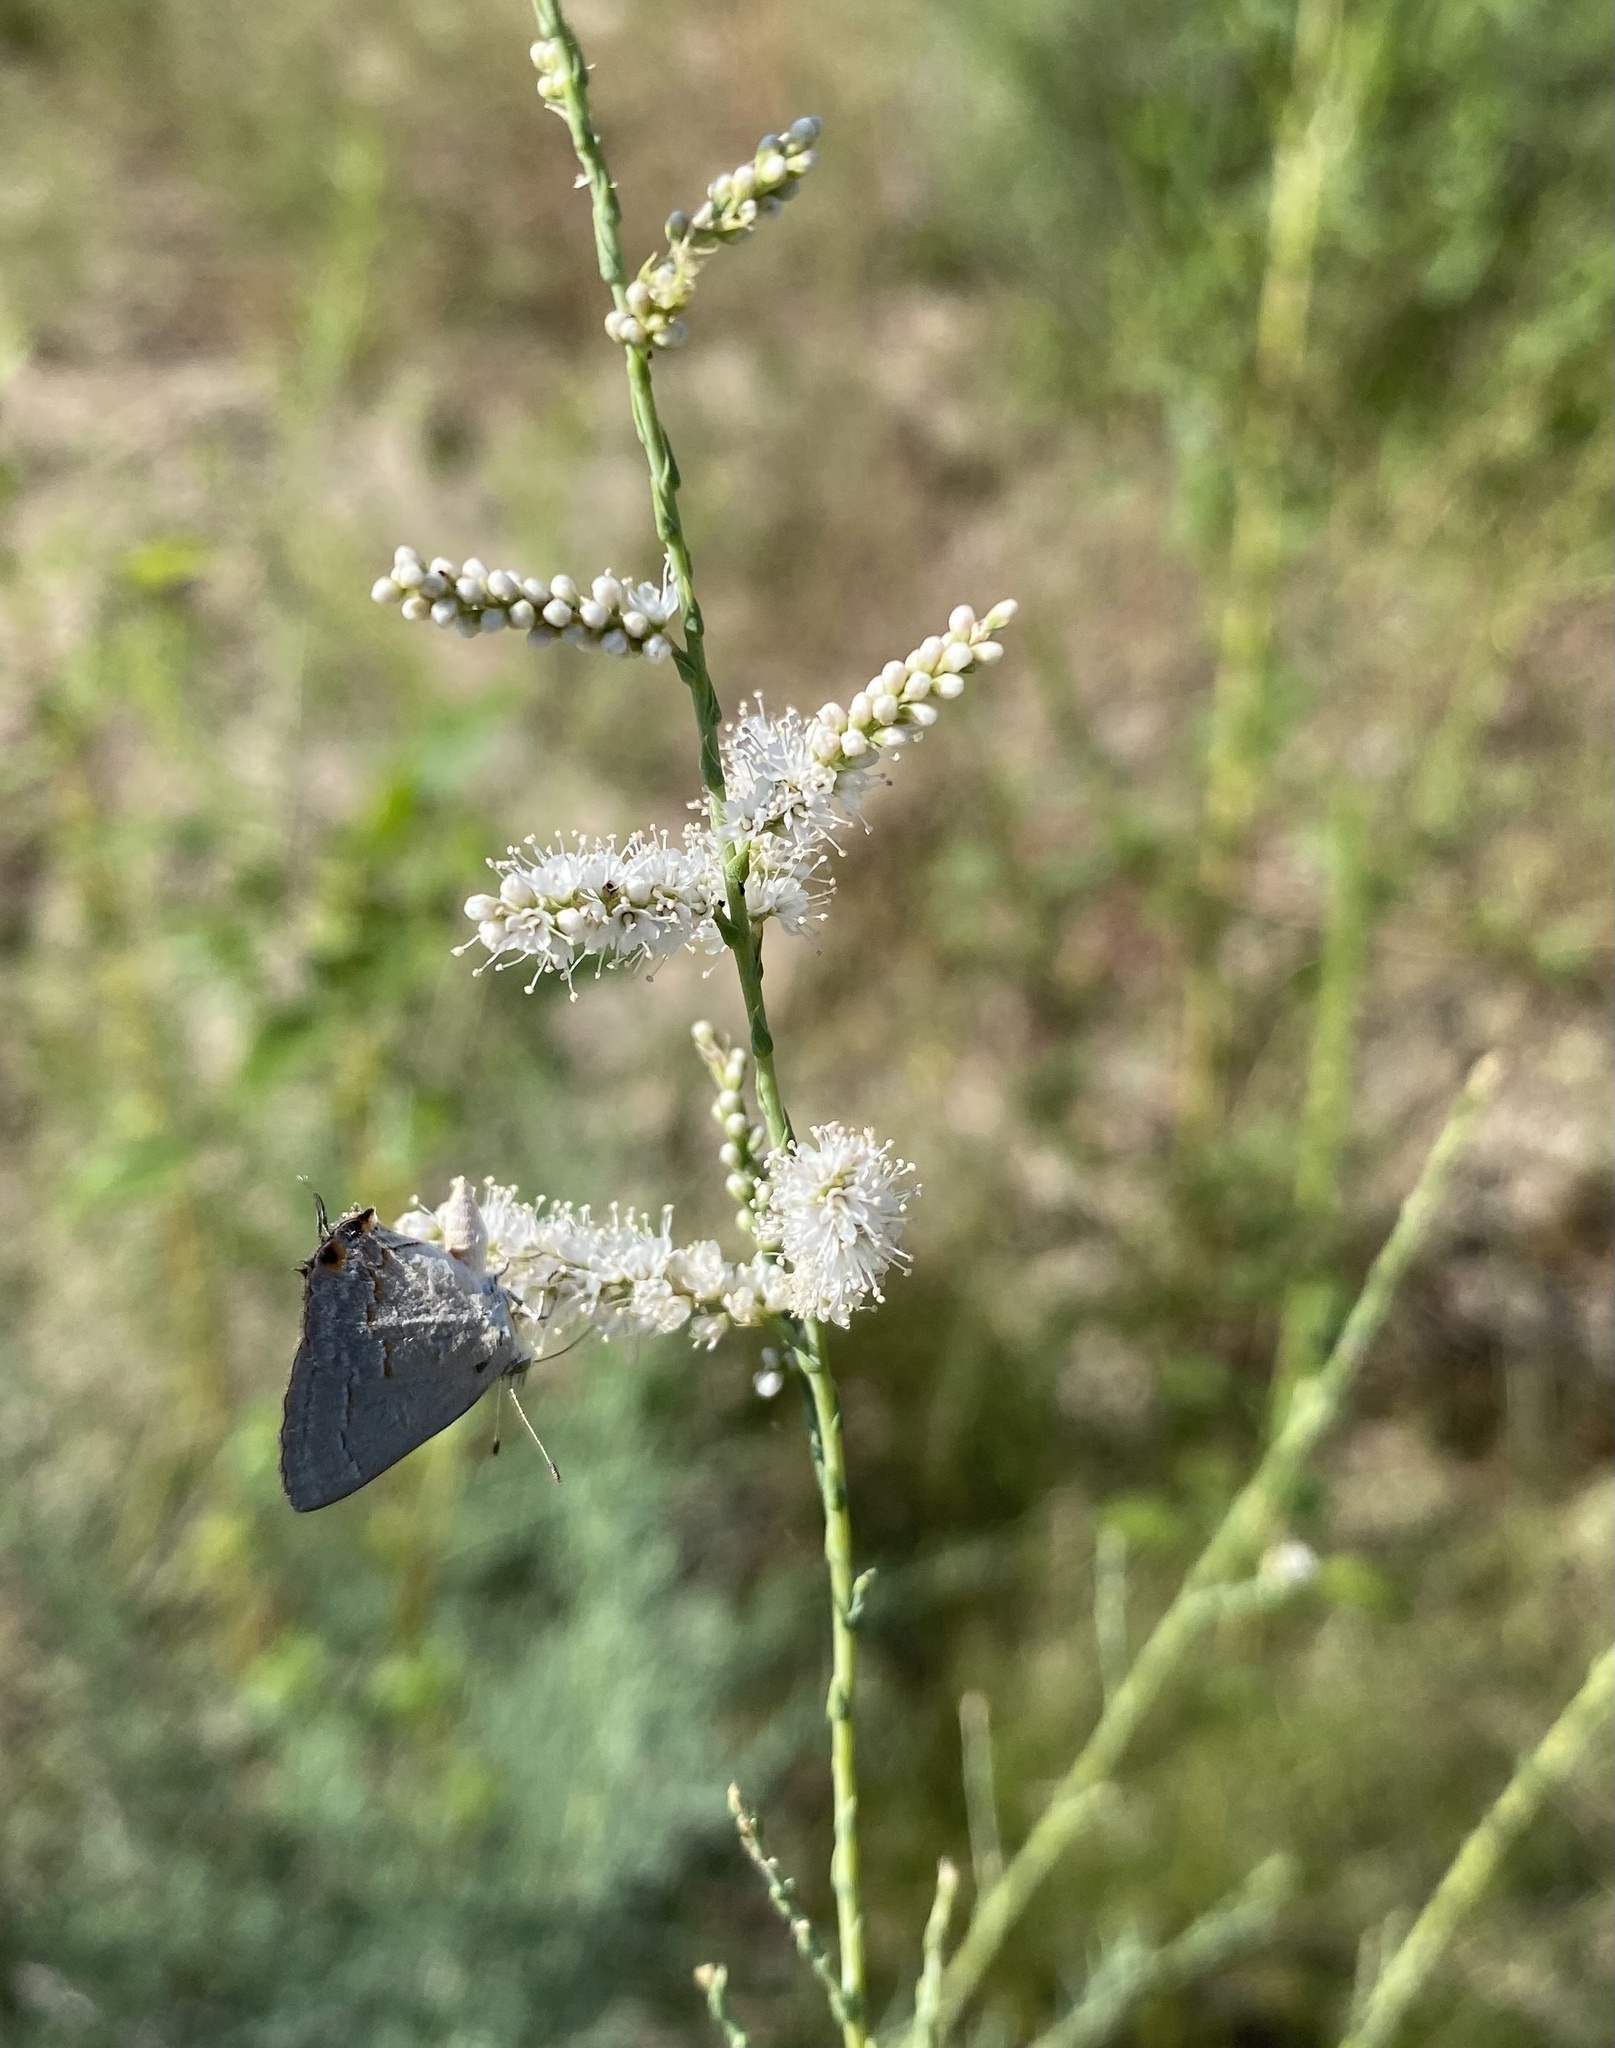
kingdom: Plantae
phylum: Tracheophyta
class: Magnoliopsida
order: Caryophyllales
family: Tamaricaceae
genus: Tamarix
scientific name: Tamarix
